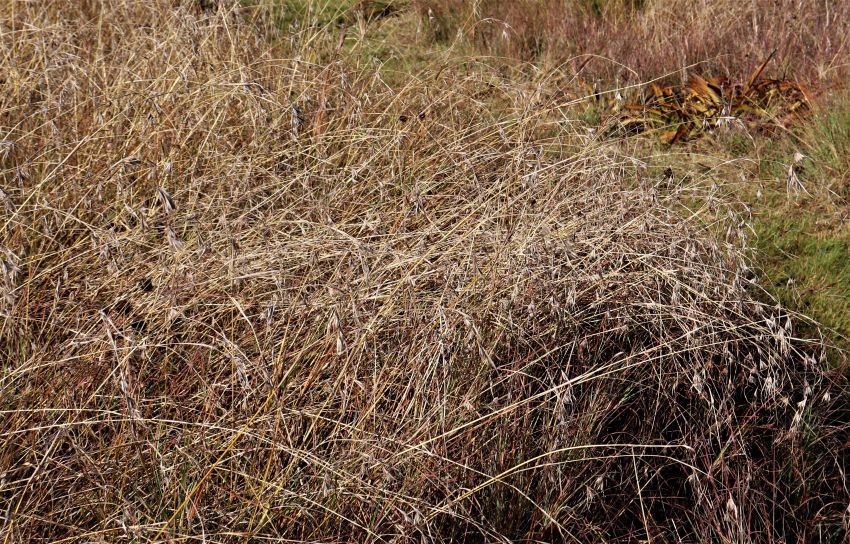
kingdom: Plantae
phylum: Tracheophyta
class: Liliopsida
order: Poales
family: Poaceae
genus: Themeda
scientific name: Themeda triandra
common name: Kangaroo grass
